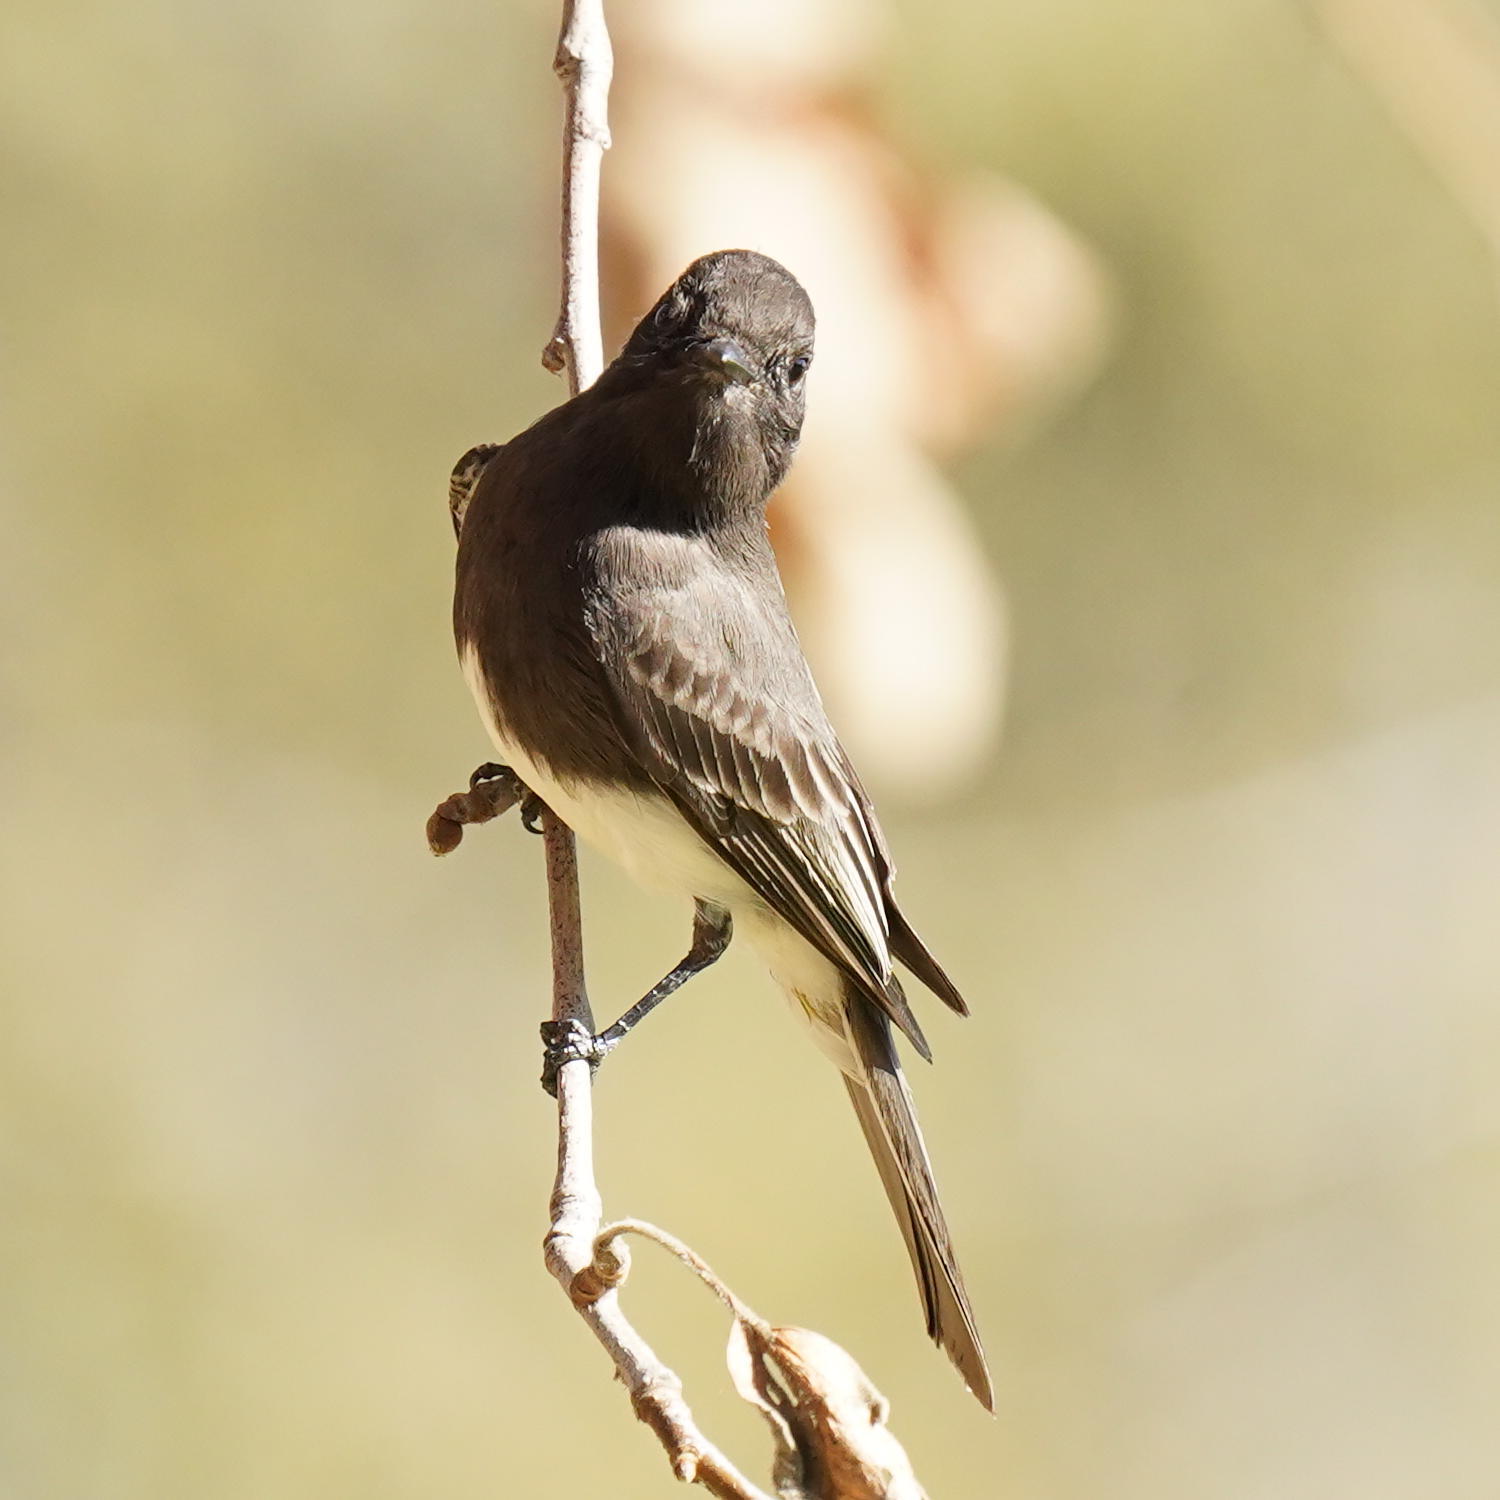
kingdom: Animalia
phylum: Chordata
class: Aves
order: Passeriformes
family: Tyrannidae
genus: Sayornis
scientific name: Sayornis nigricans
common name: Black phoebe
